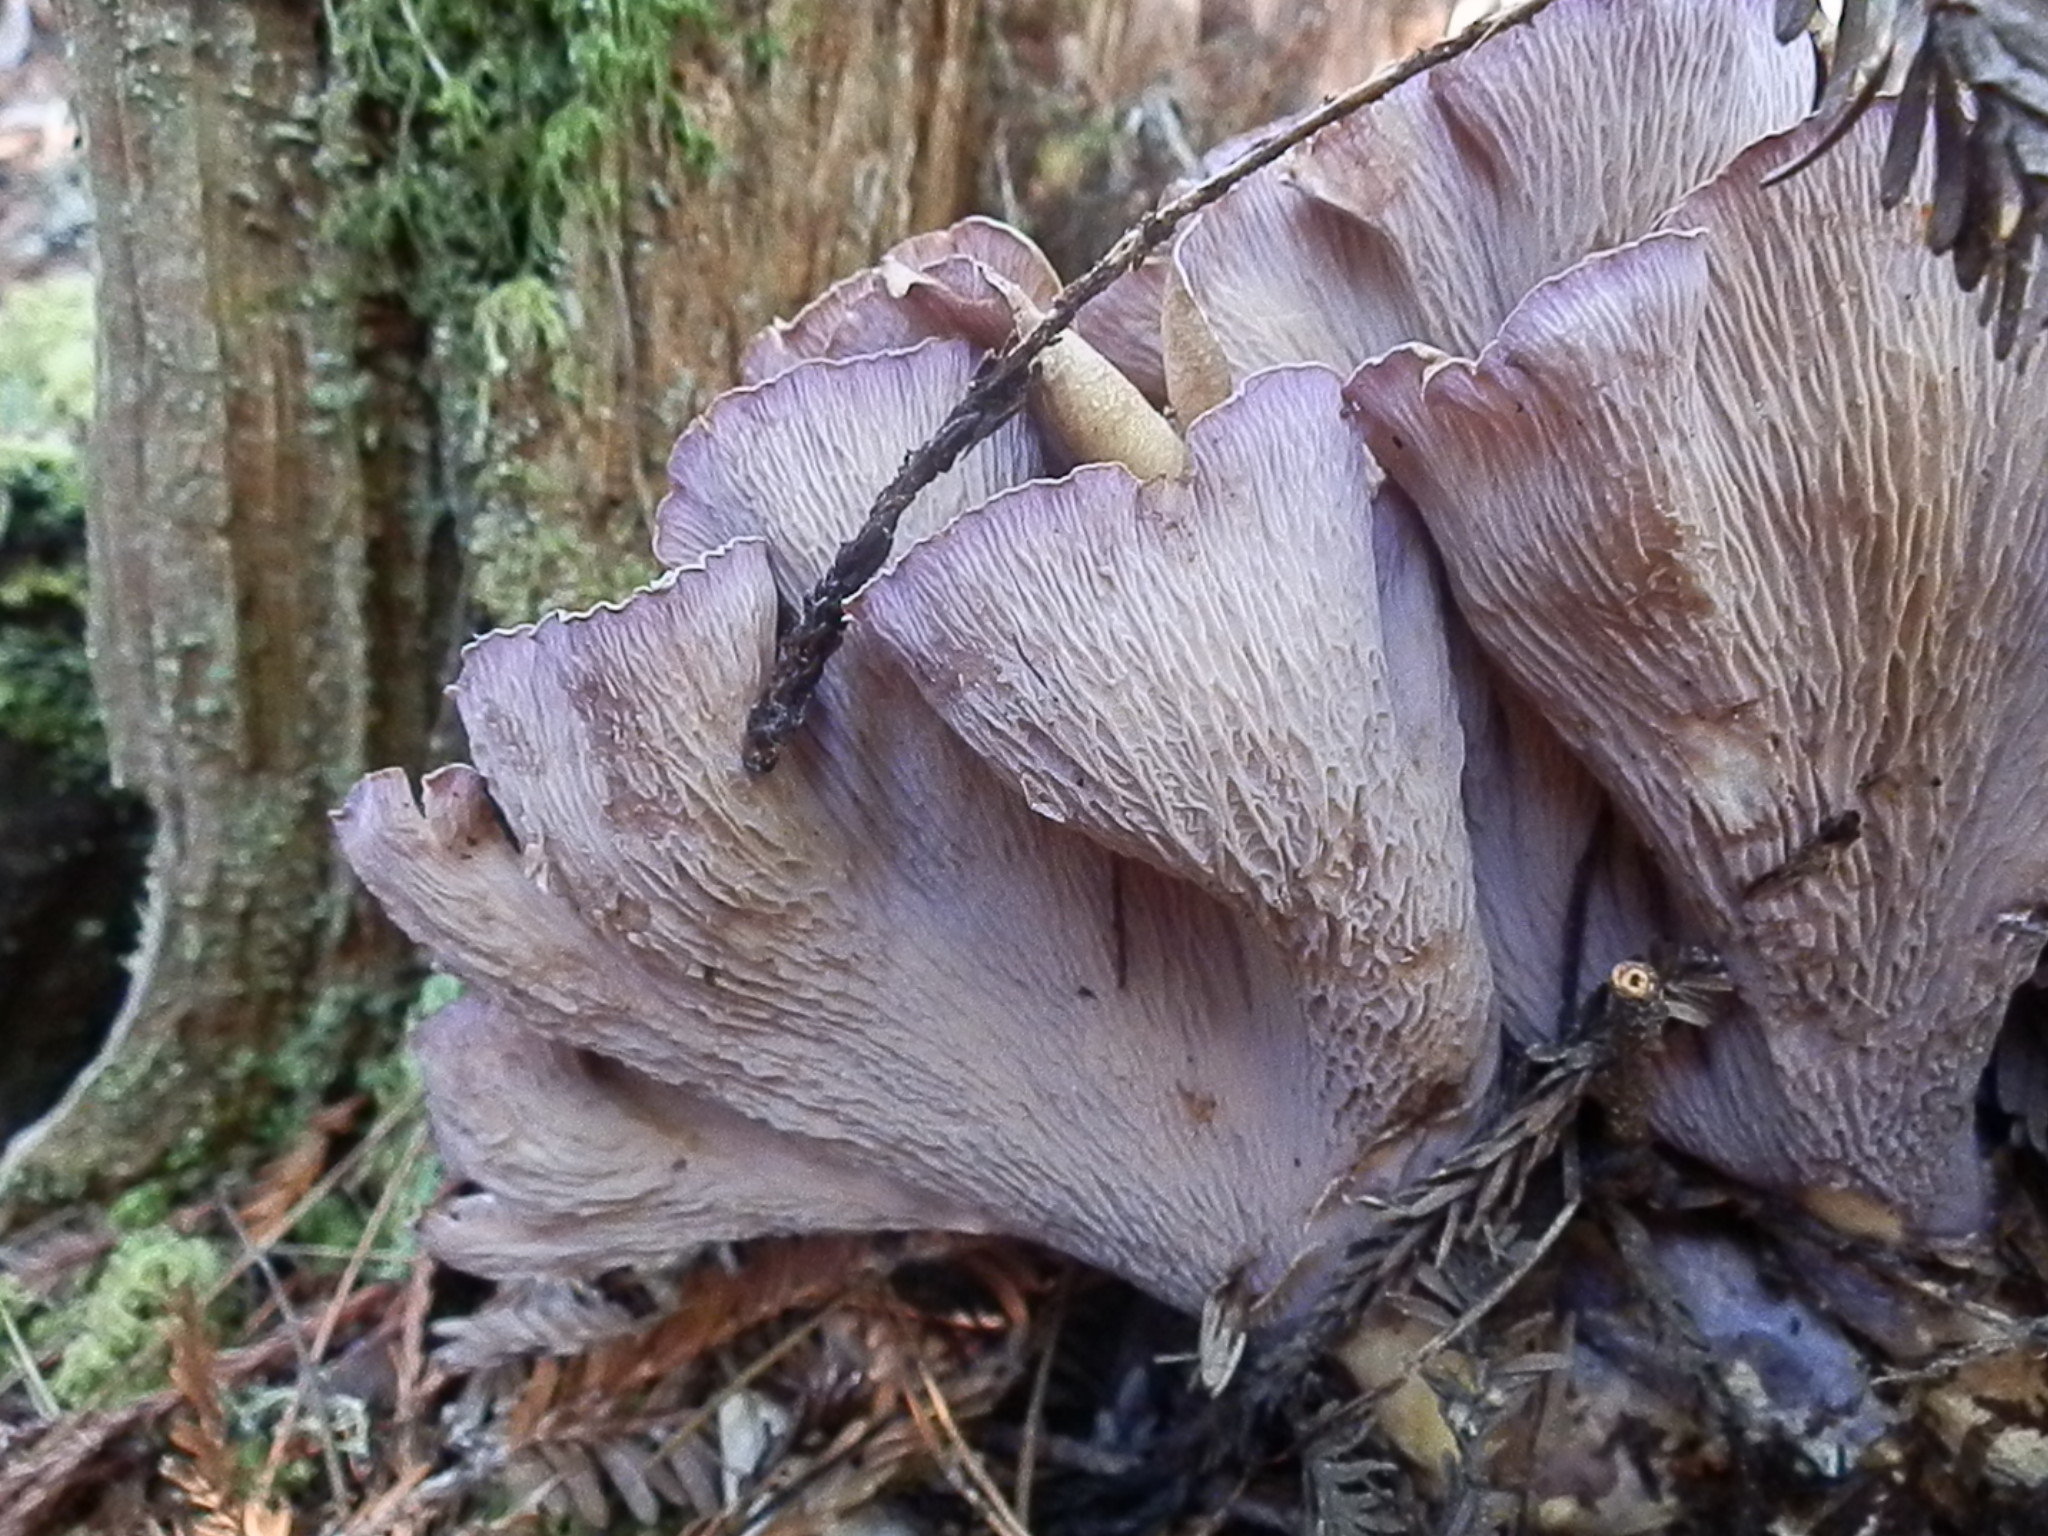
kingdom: Fungi
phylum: Basidiomycota
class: Agaricomycetes
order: Gomphales
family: Gomphaceae
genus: Gomphus
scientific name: Gomphus clavatus
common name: Pig's ear
